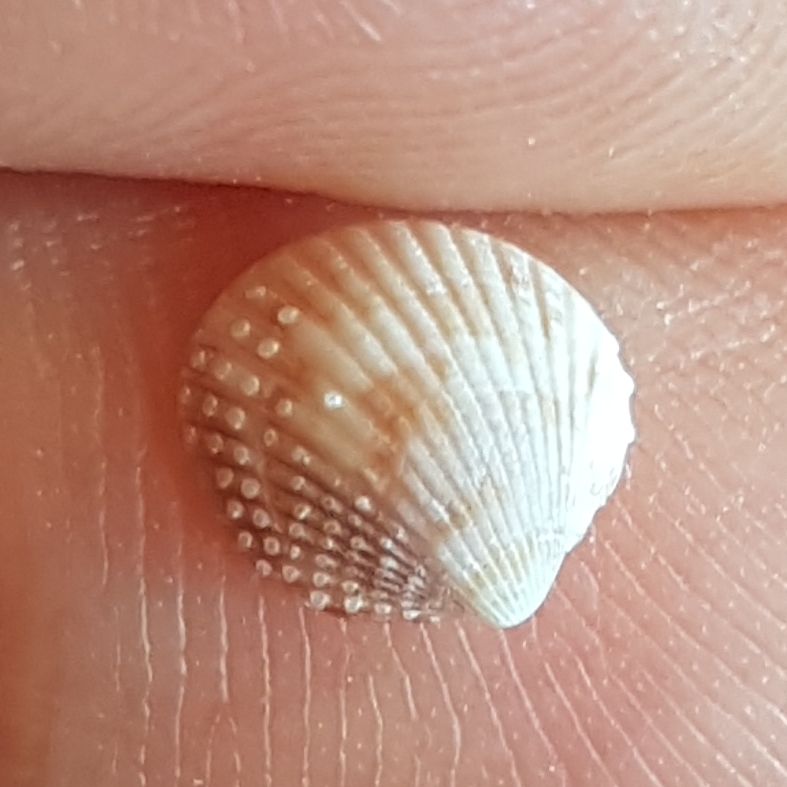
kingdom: Animalia
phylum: Mollusca
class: Bivalvia
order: Cardiida
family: Cardiidae
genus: Papillicardium
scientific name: Papillicardium papillosum
